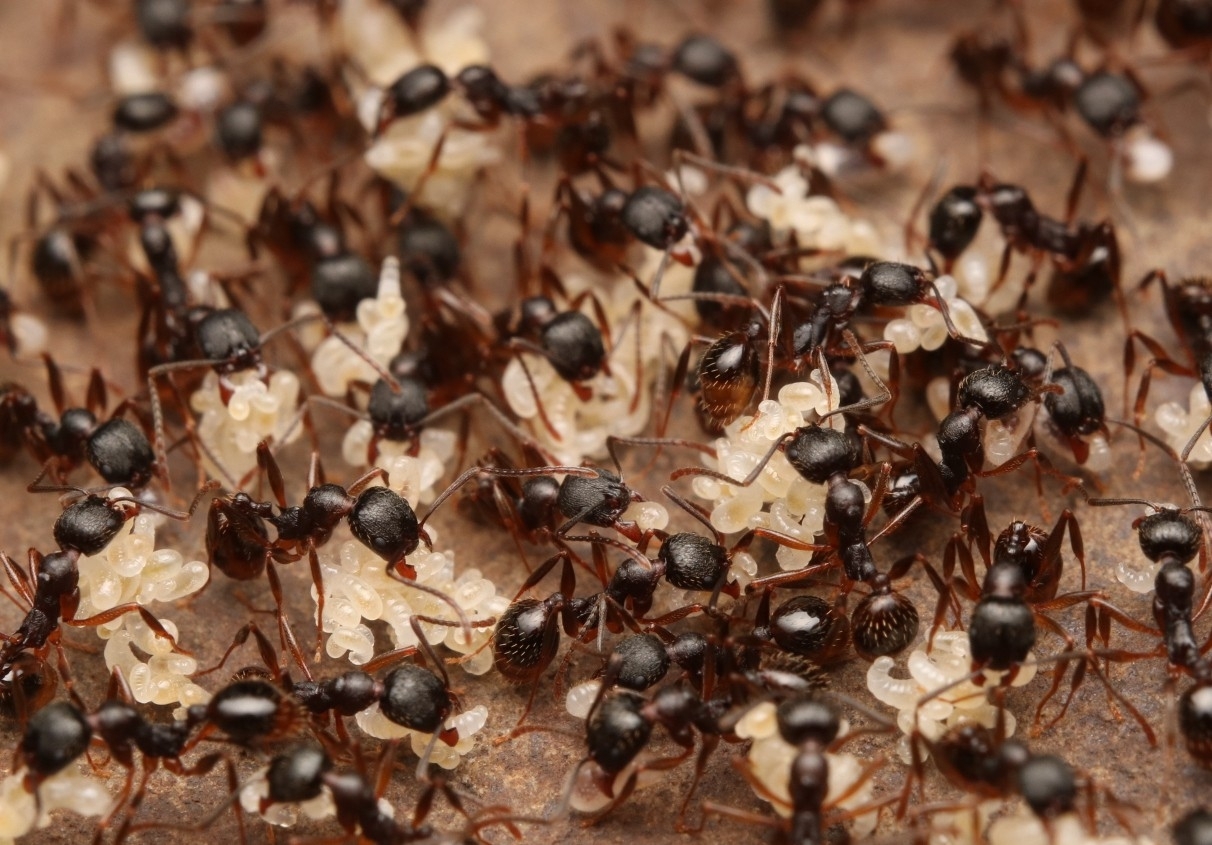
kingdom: Animalia
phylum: Arthropoda
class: Insecta
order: Hymenoptera
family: Formicidae
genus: Aphaenogaster
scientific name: Aphaenogaster picea
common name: Pitch-black collared ant
